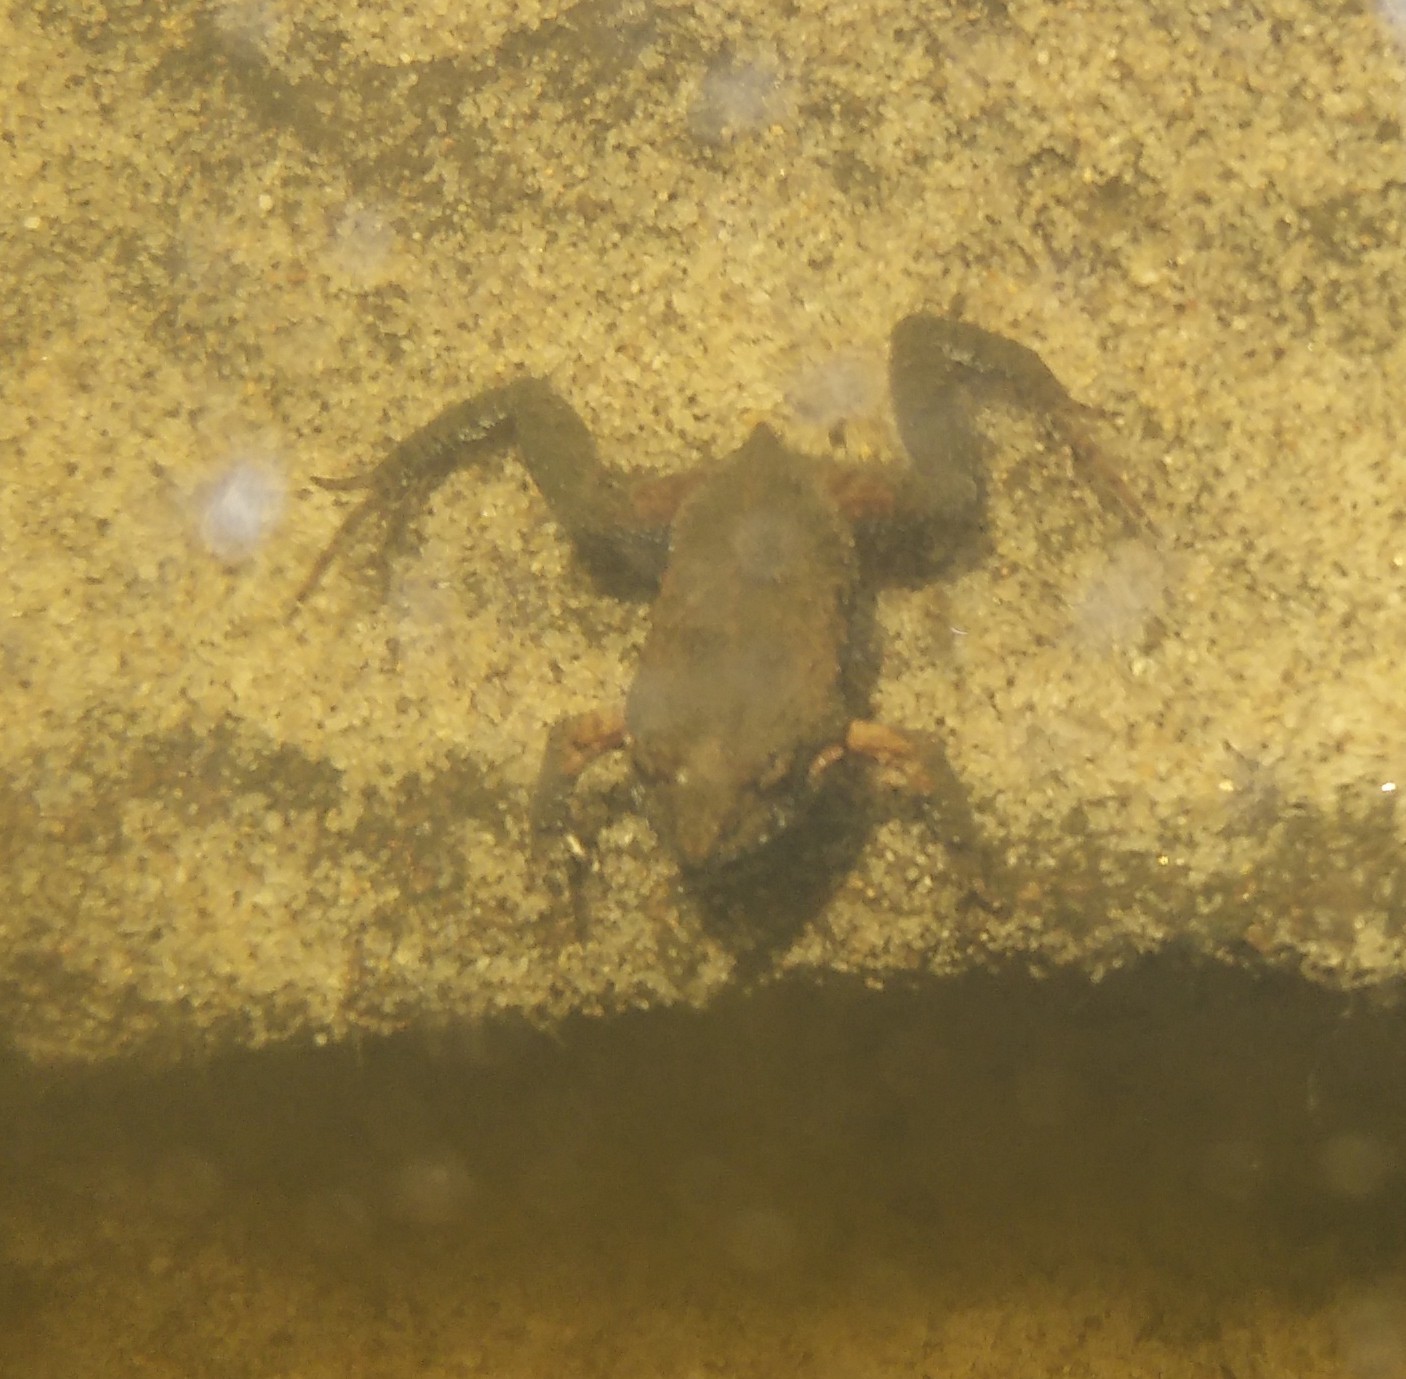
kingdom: Animalia
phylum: Chordata
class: Amphibia
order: Anura
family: Myobatrachidae
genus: Crinia
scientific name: Crinia signifera
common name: Brown froglet
